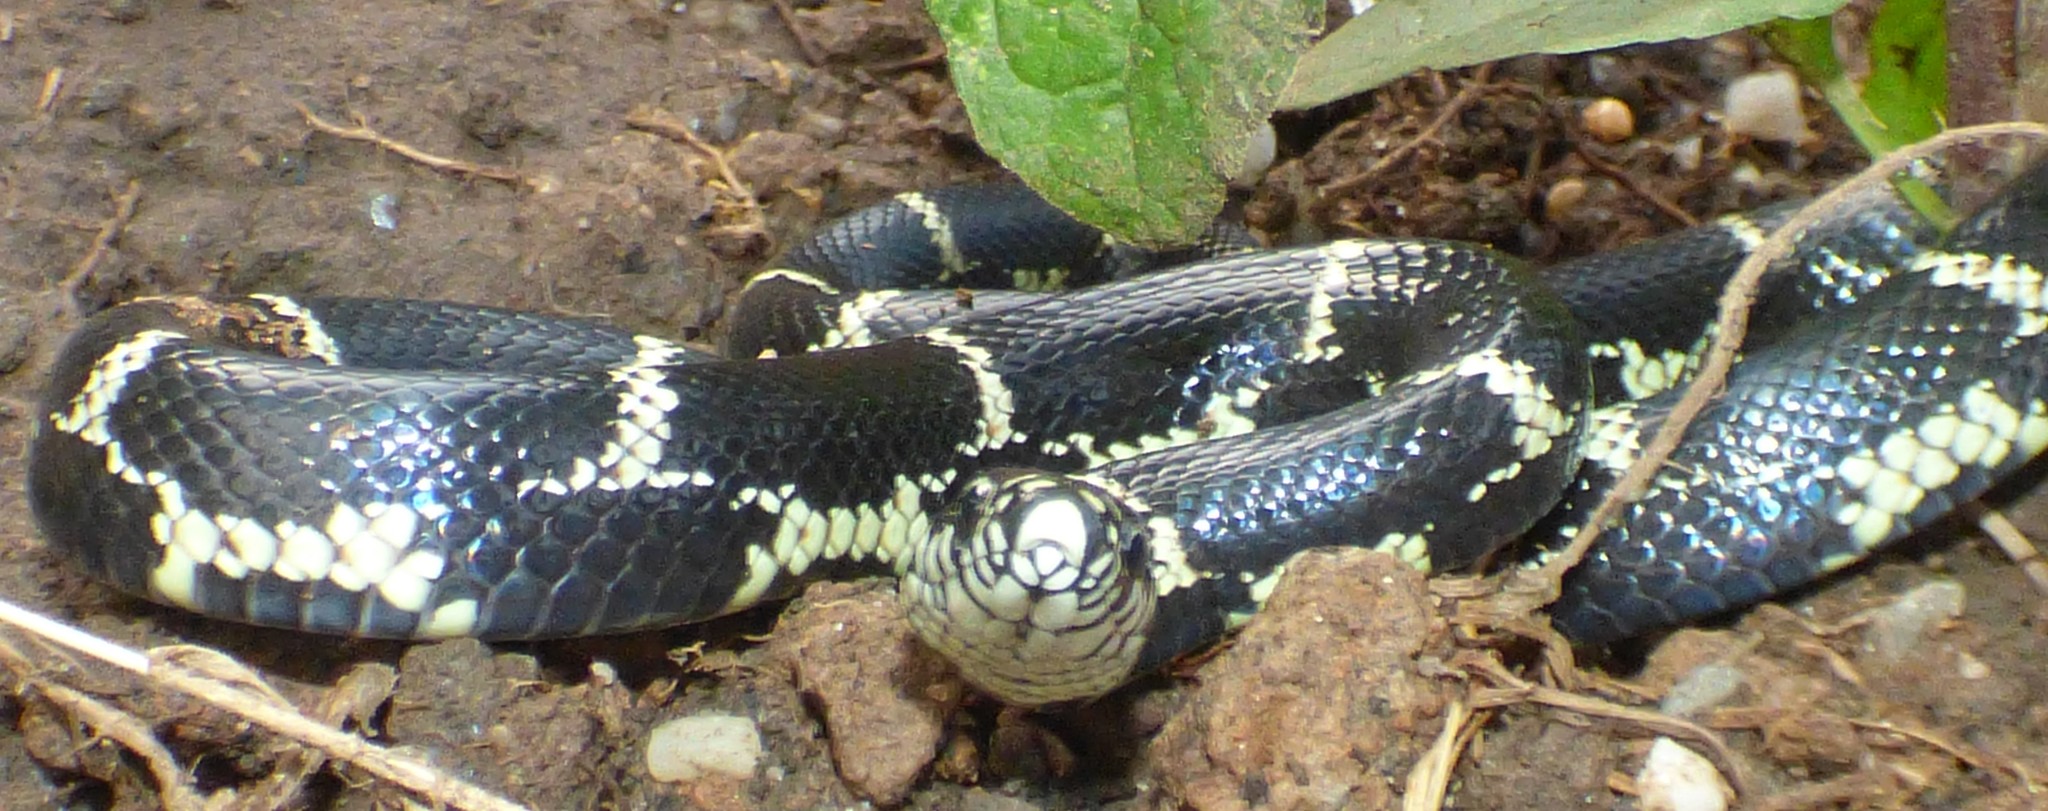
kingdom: Animalia
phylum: Chordata
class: Squamata
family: Colubridae
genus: Lampropeltis
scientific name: Lampropeltis getula
